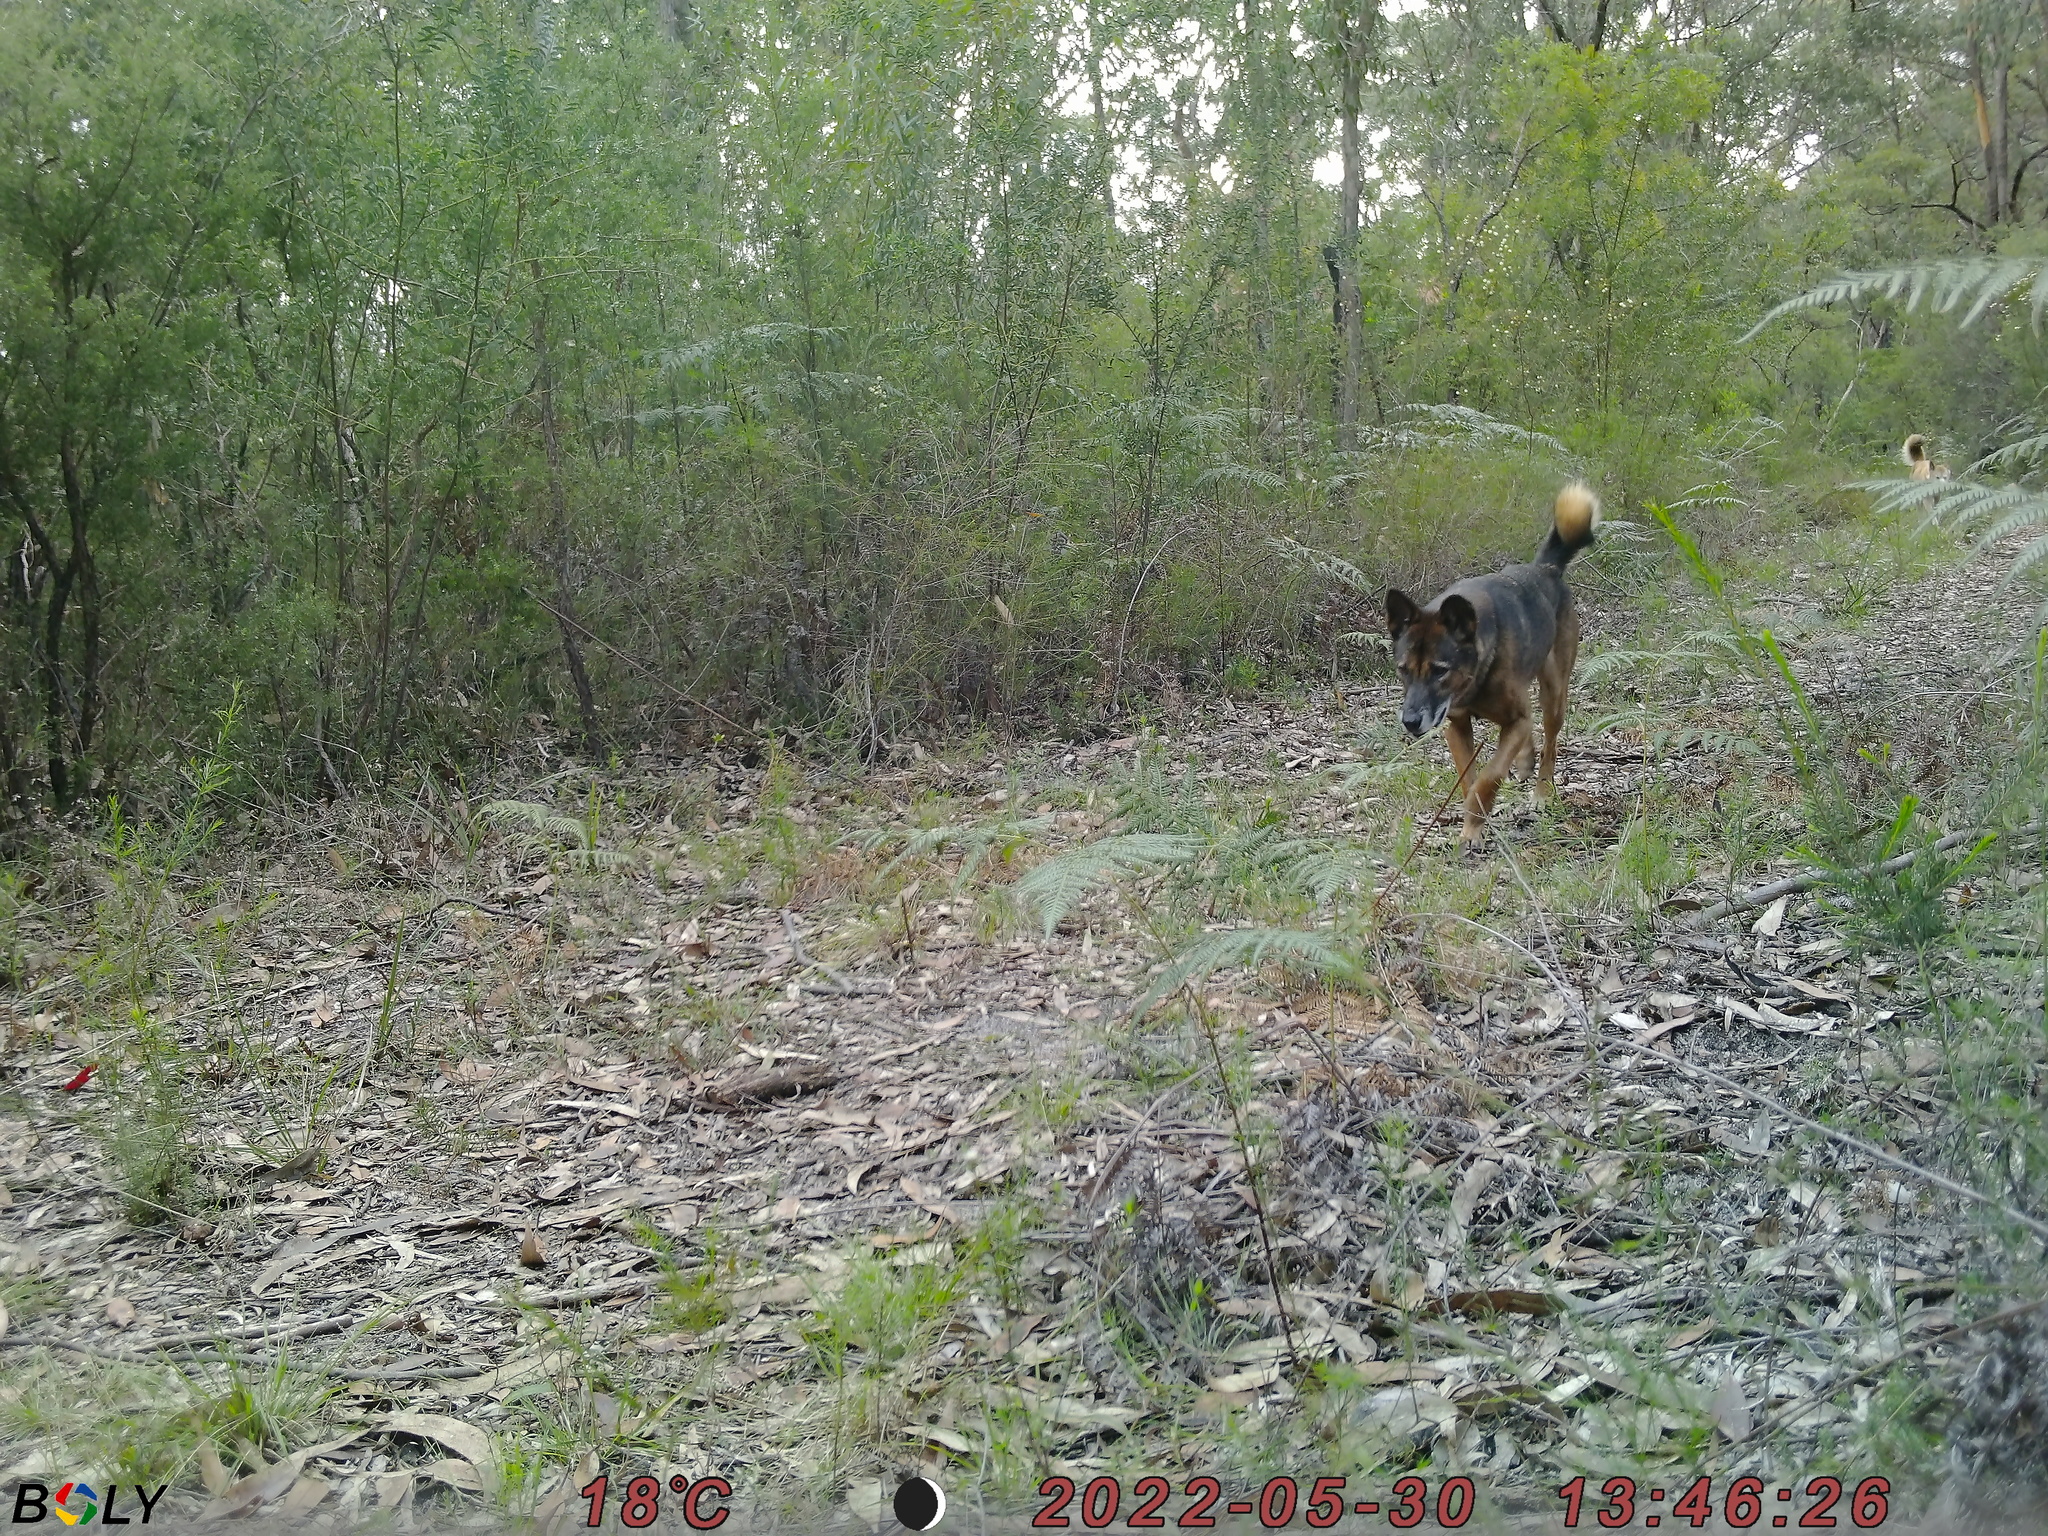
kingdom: Animalia
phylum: Chordata
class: Mammalia
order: Carnivora
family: Canidae
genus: Canis
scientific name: Canis lupus
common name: Gray wolf
